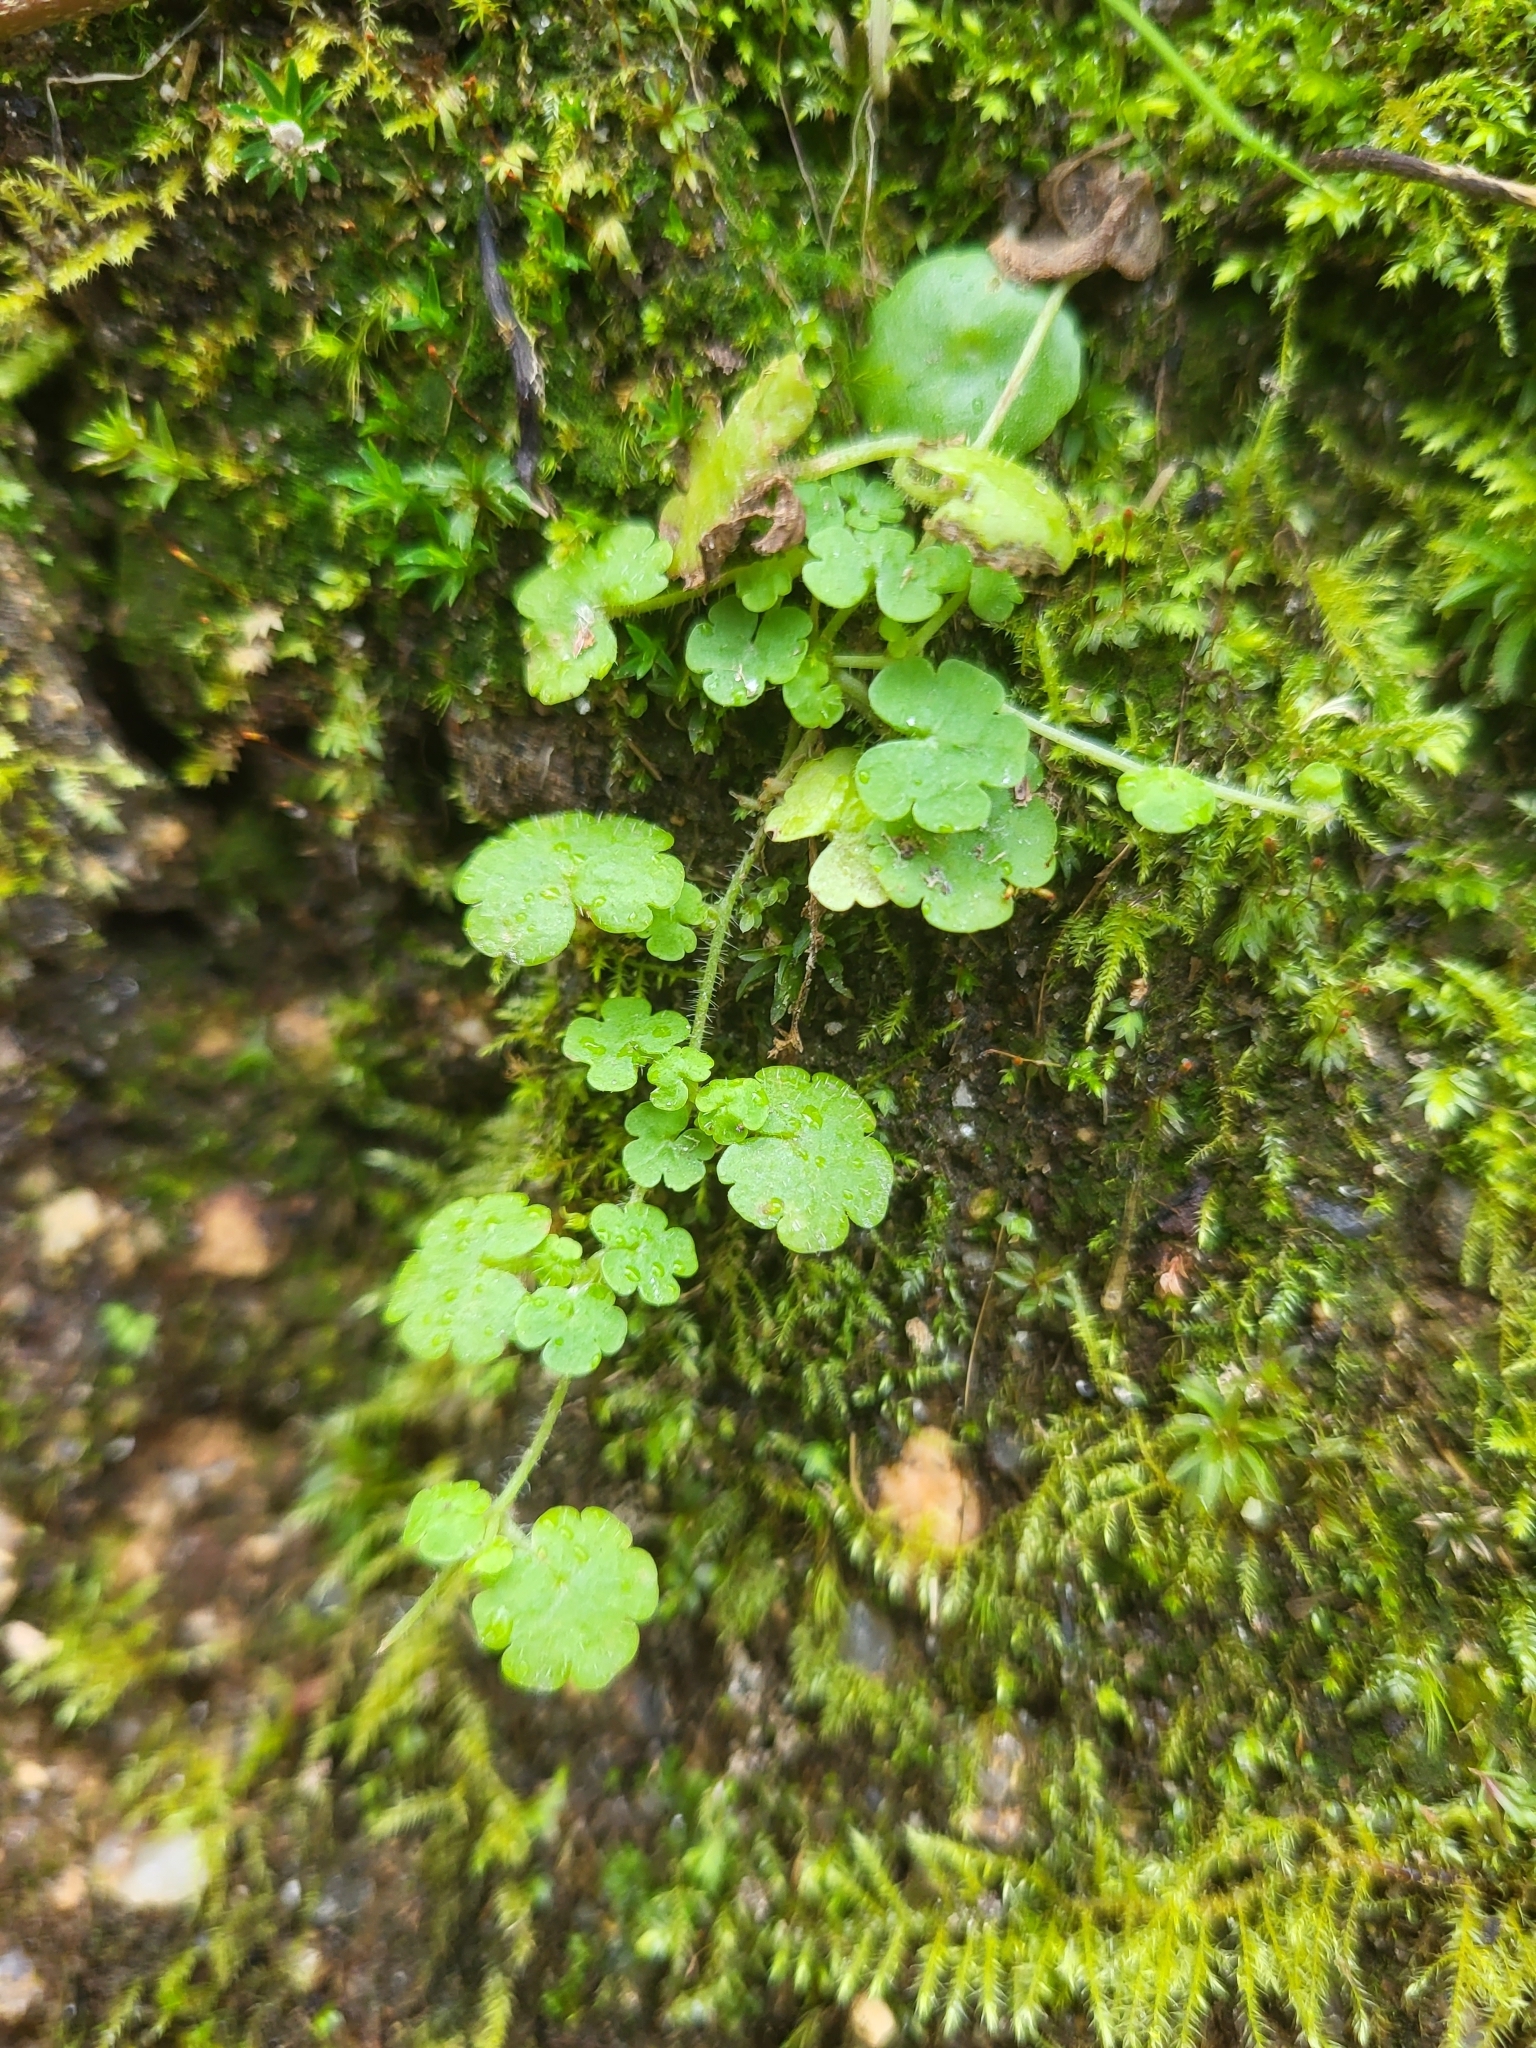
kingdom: Plantae
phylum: Tracheophyta
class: Magnoliopsida
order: Lamiales
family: Plantaginaceae
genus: Sibthorpia
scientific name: Sibthorpia europaea
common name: Cornish moneywort
